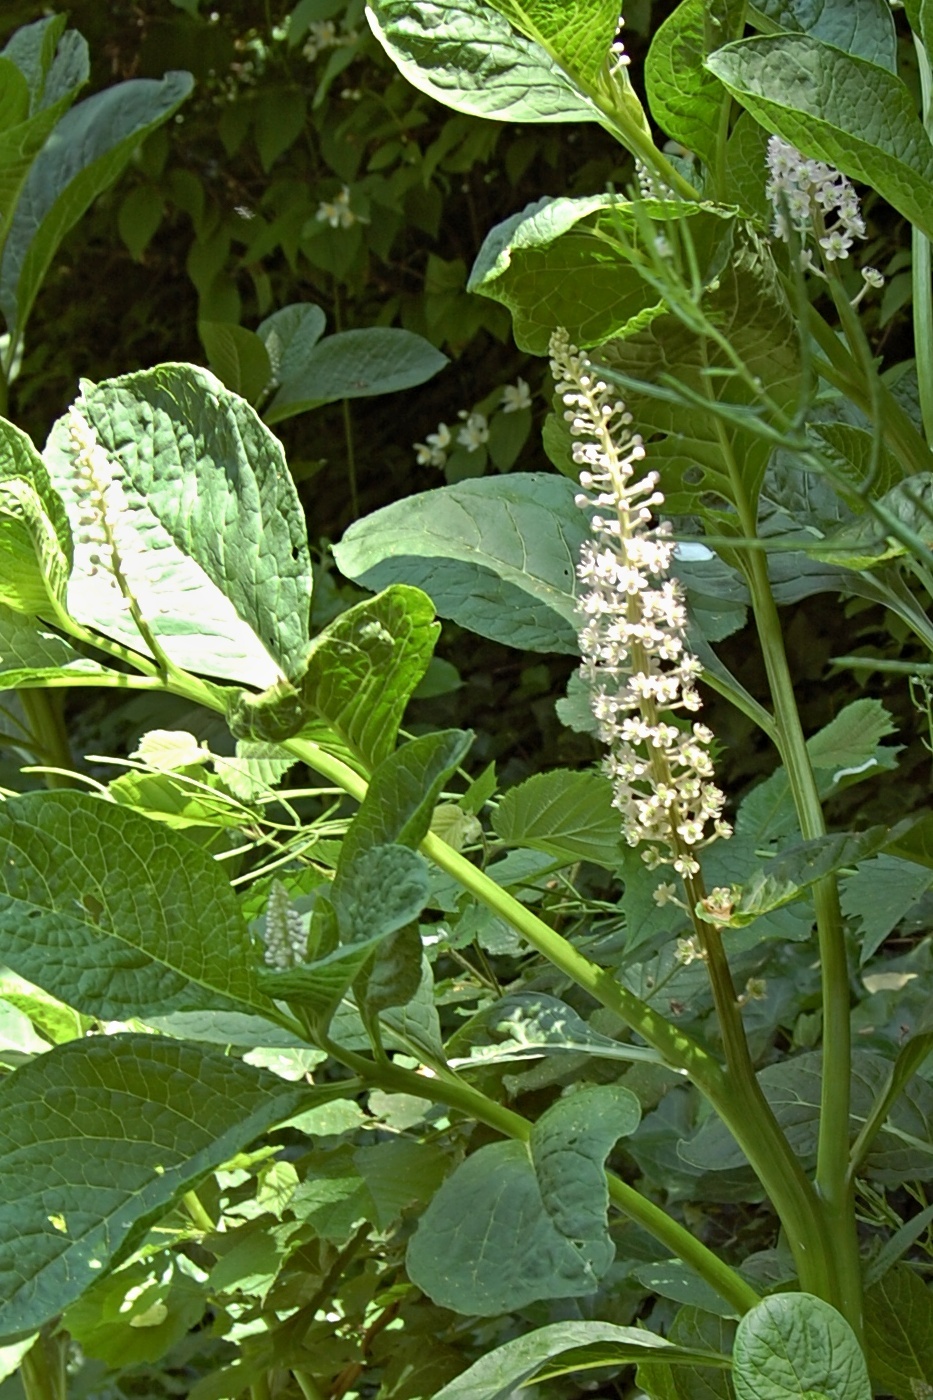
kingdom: Plantae
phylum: Tracheophyta
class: Magnoliopsida
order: Caryophyllales
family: Phytolaccaceae
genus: Phytolacca
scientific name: Phytolacca acinosa
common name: Indian pokeweed
